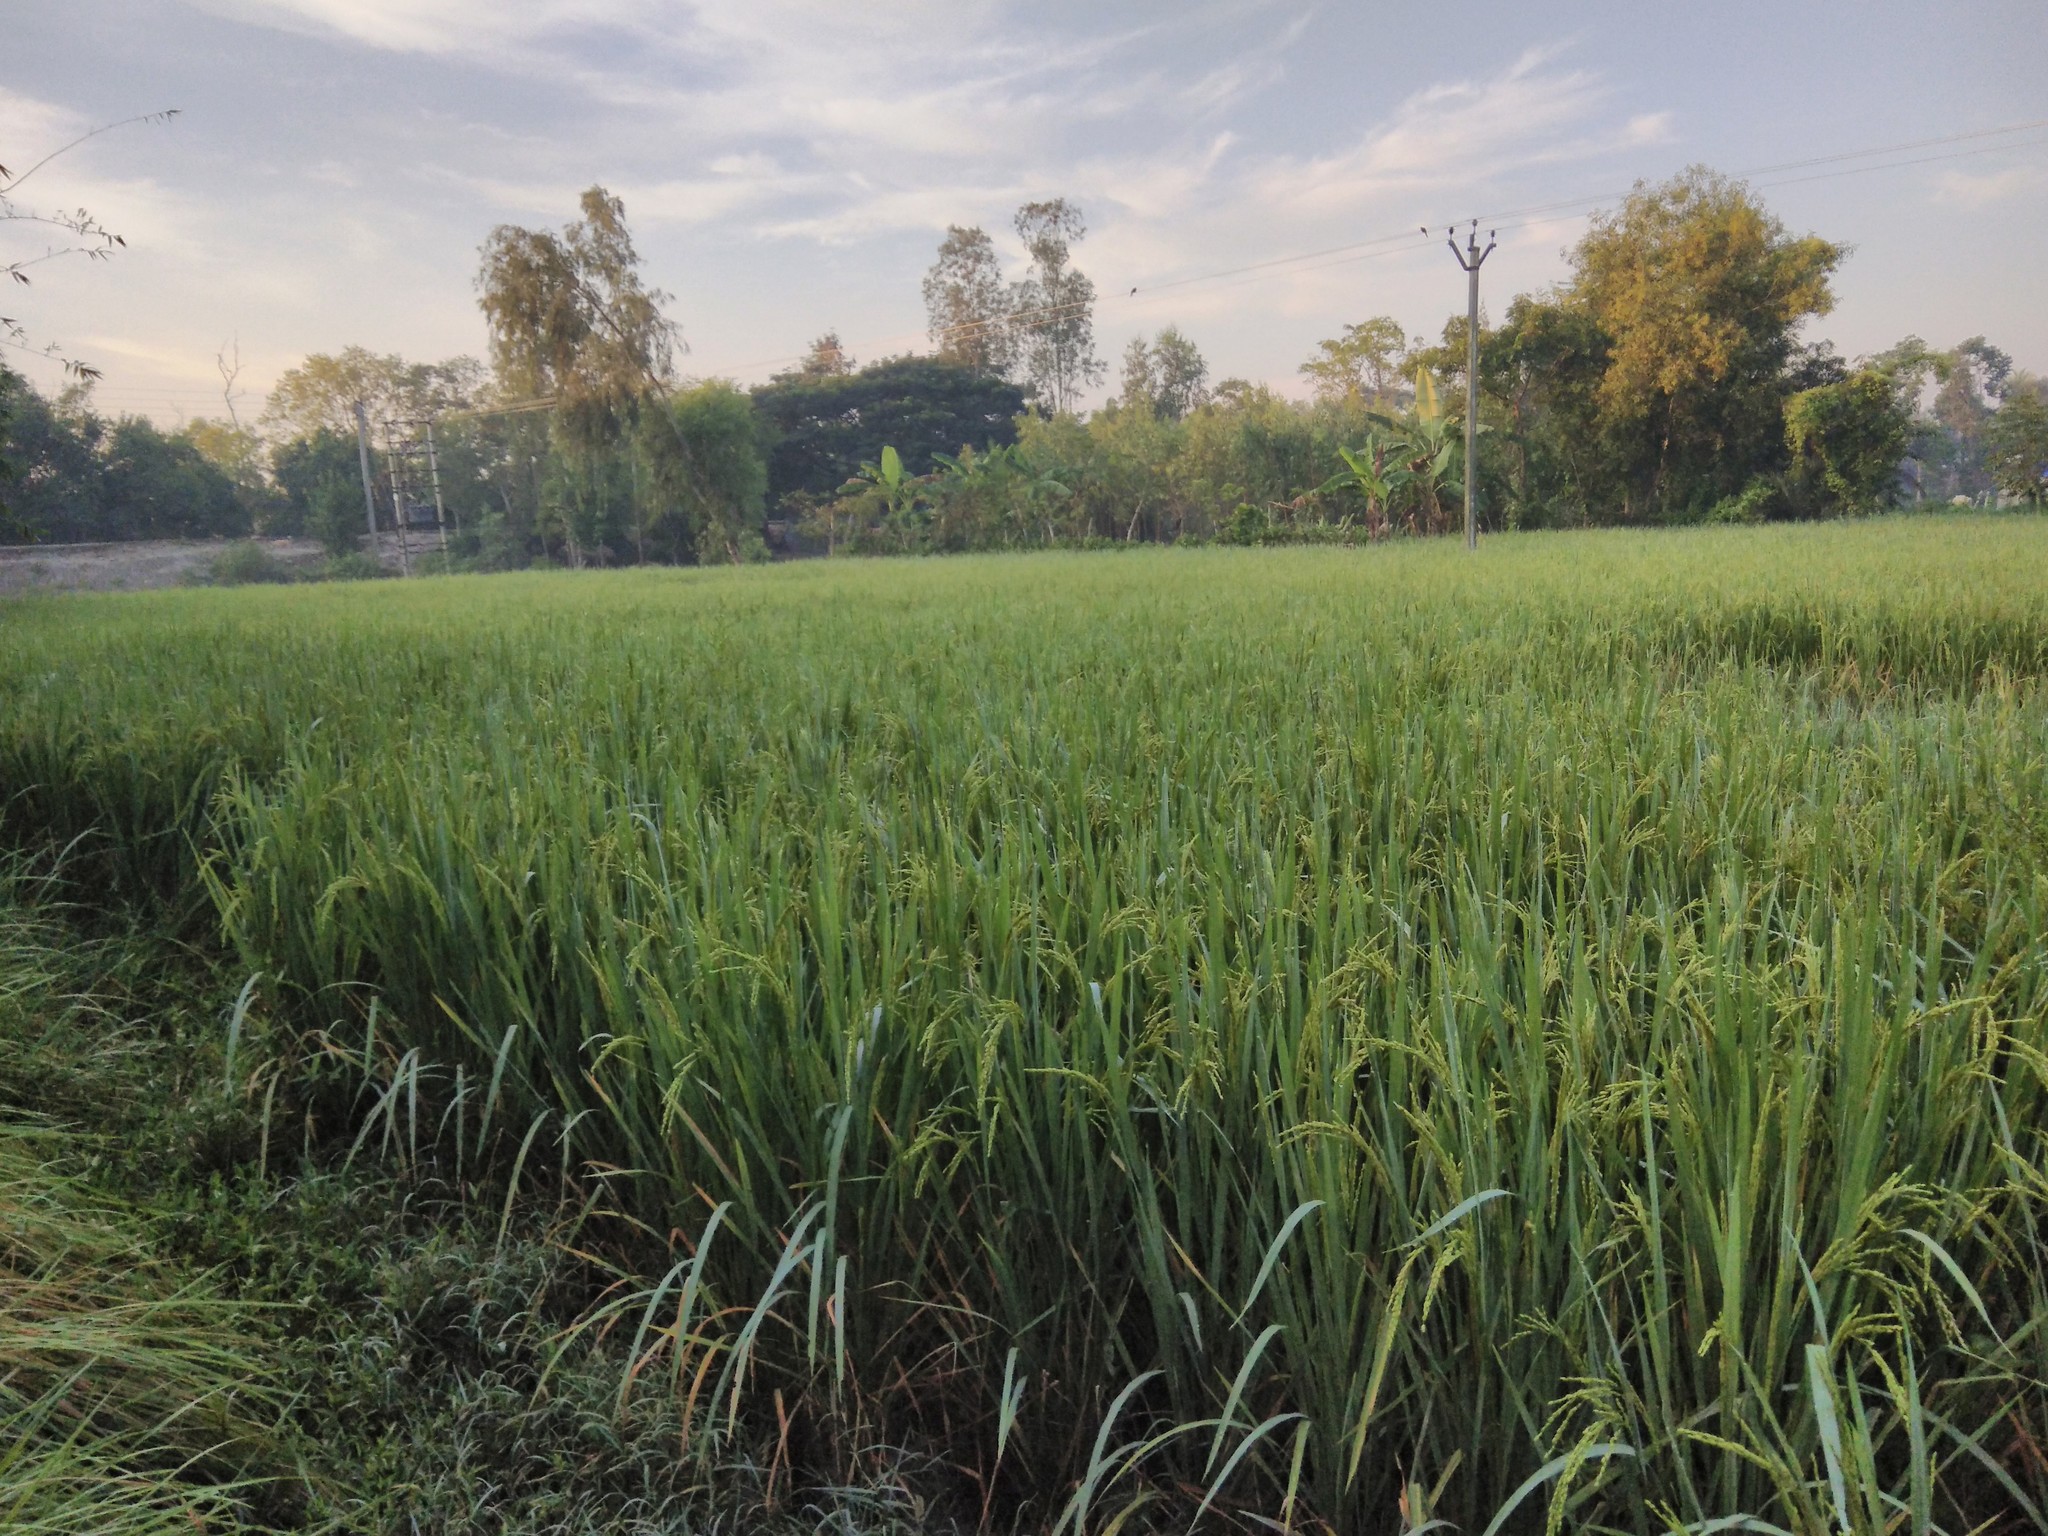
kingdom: Plantae
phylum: Tracheophyta
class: Liliopsida
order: Poales
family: Poaceae
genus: Oryza
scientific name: Oryza sativa
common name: Rice
